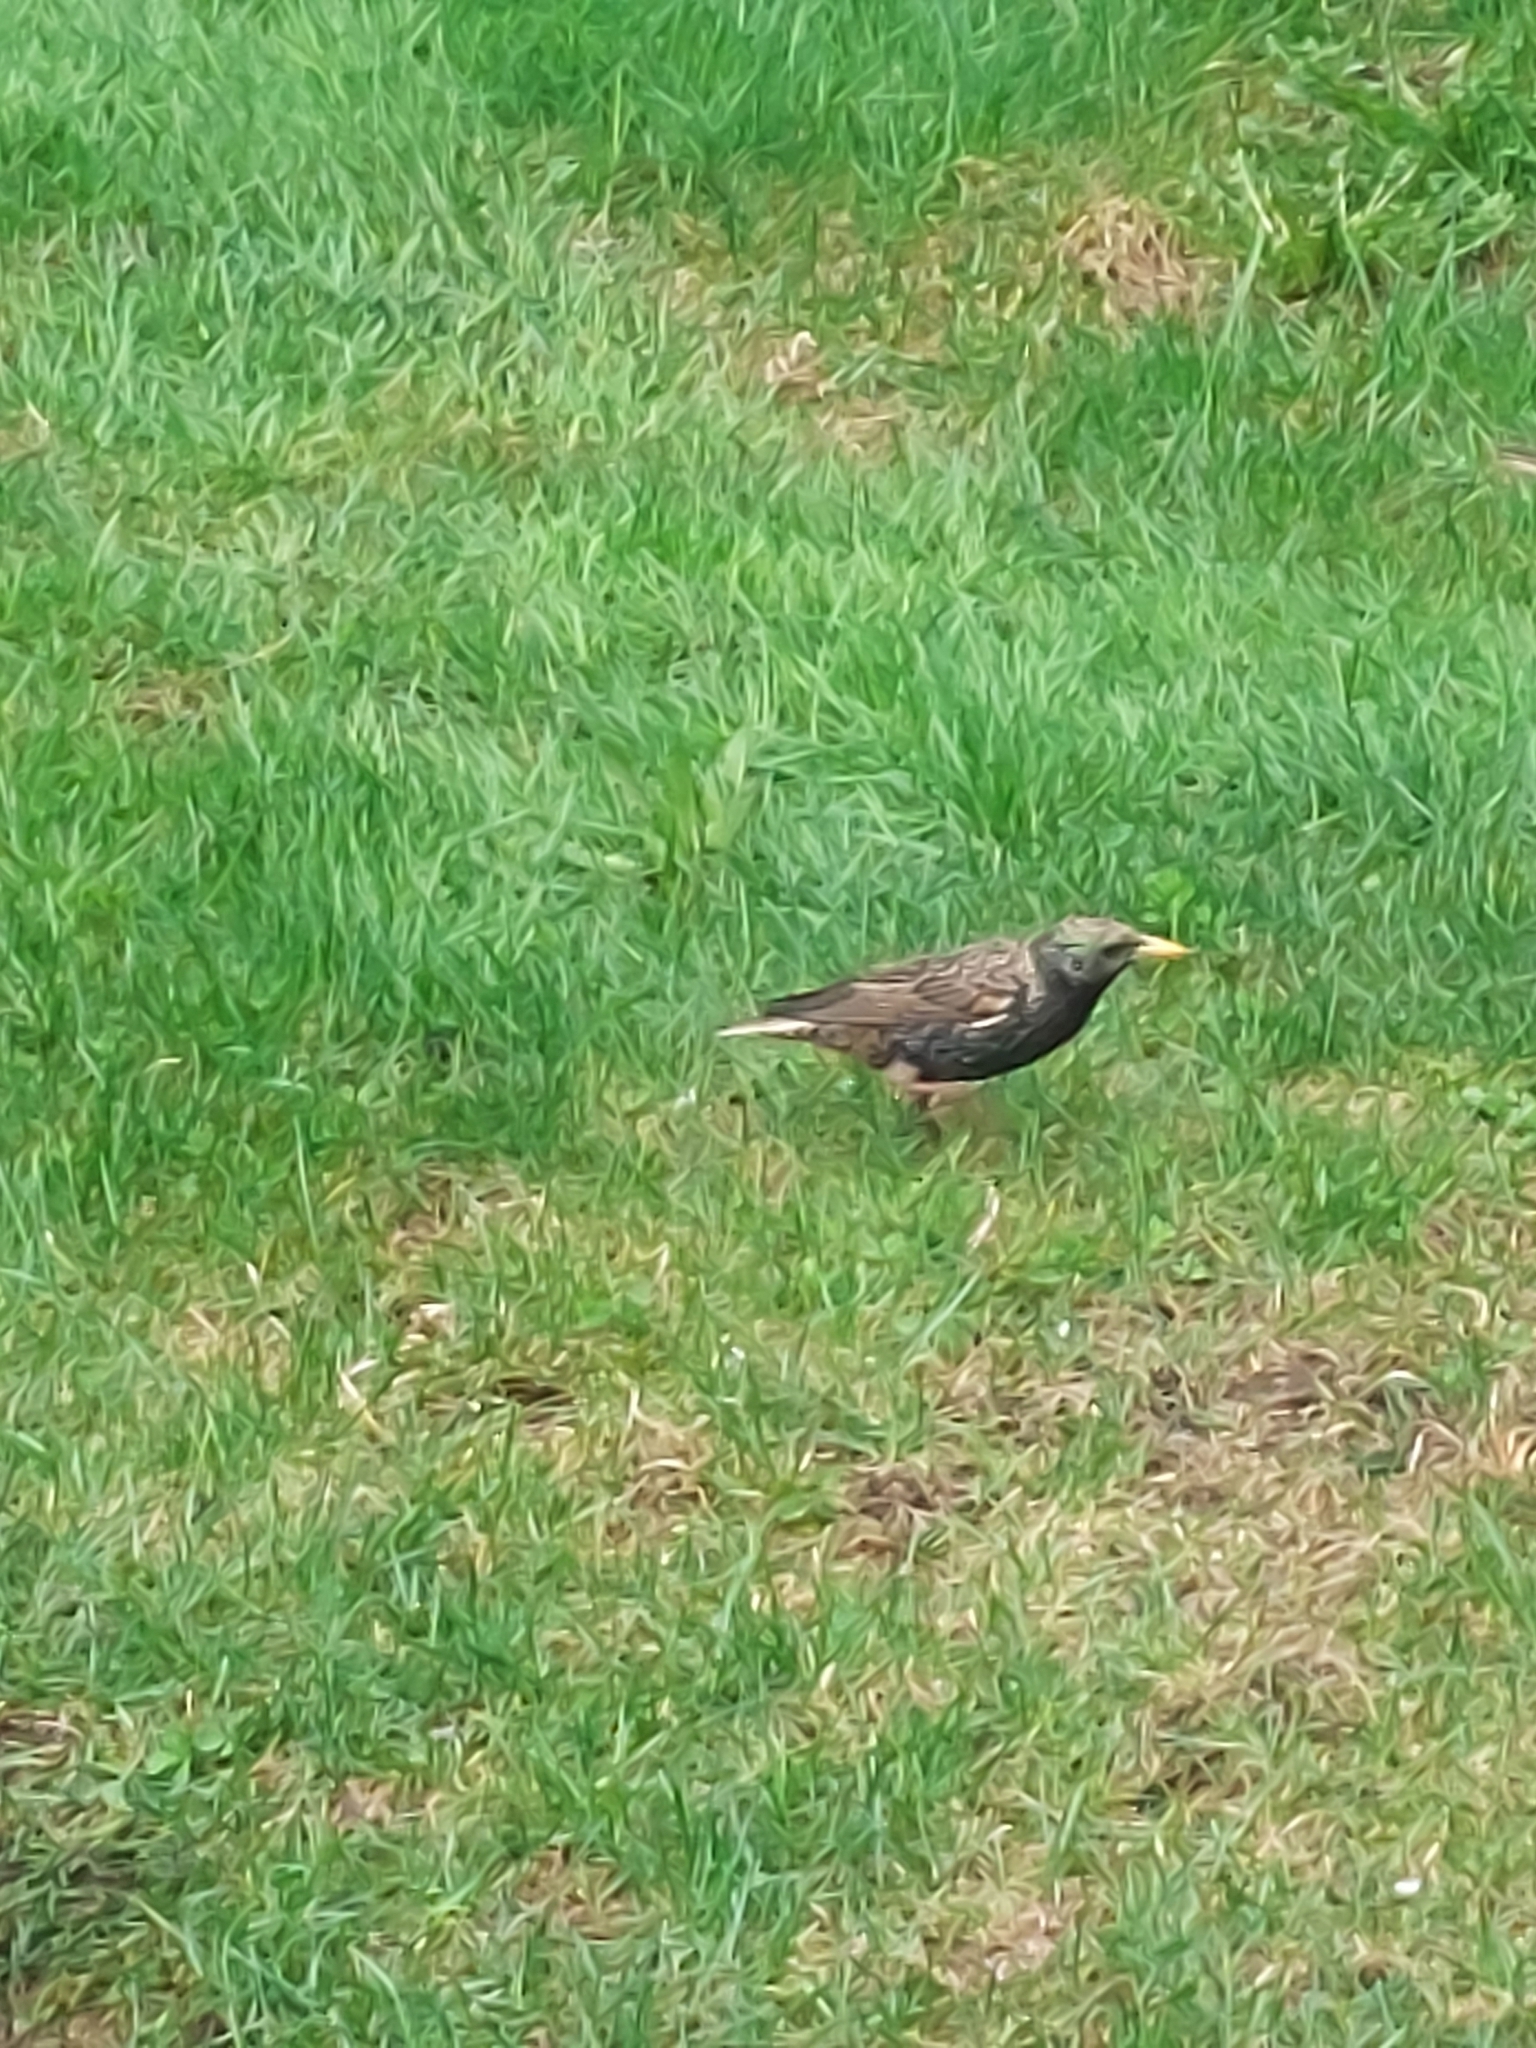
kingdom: Animalia
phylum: Chordata
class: Aves
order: Passeriformes
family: Sturnidae
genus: Sturnus
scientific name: Sturnus vulgaris
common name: Common starling
